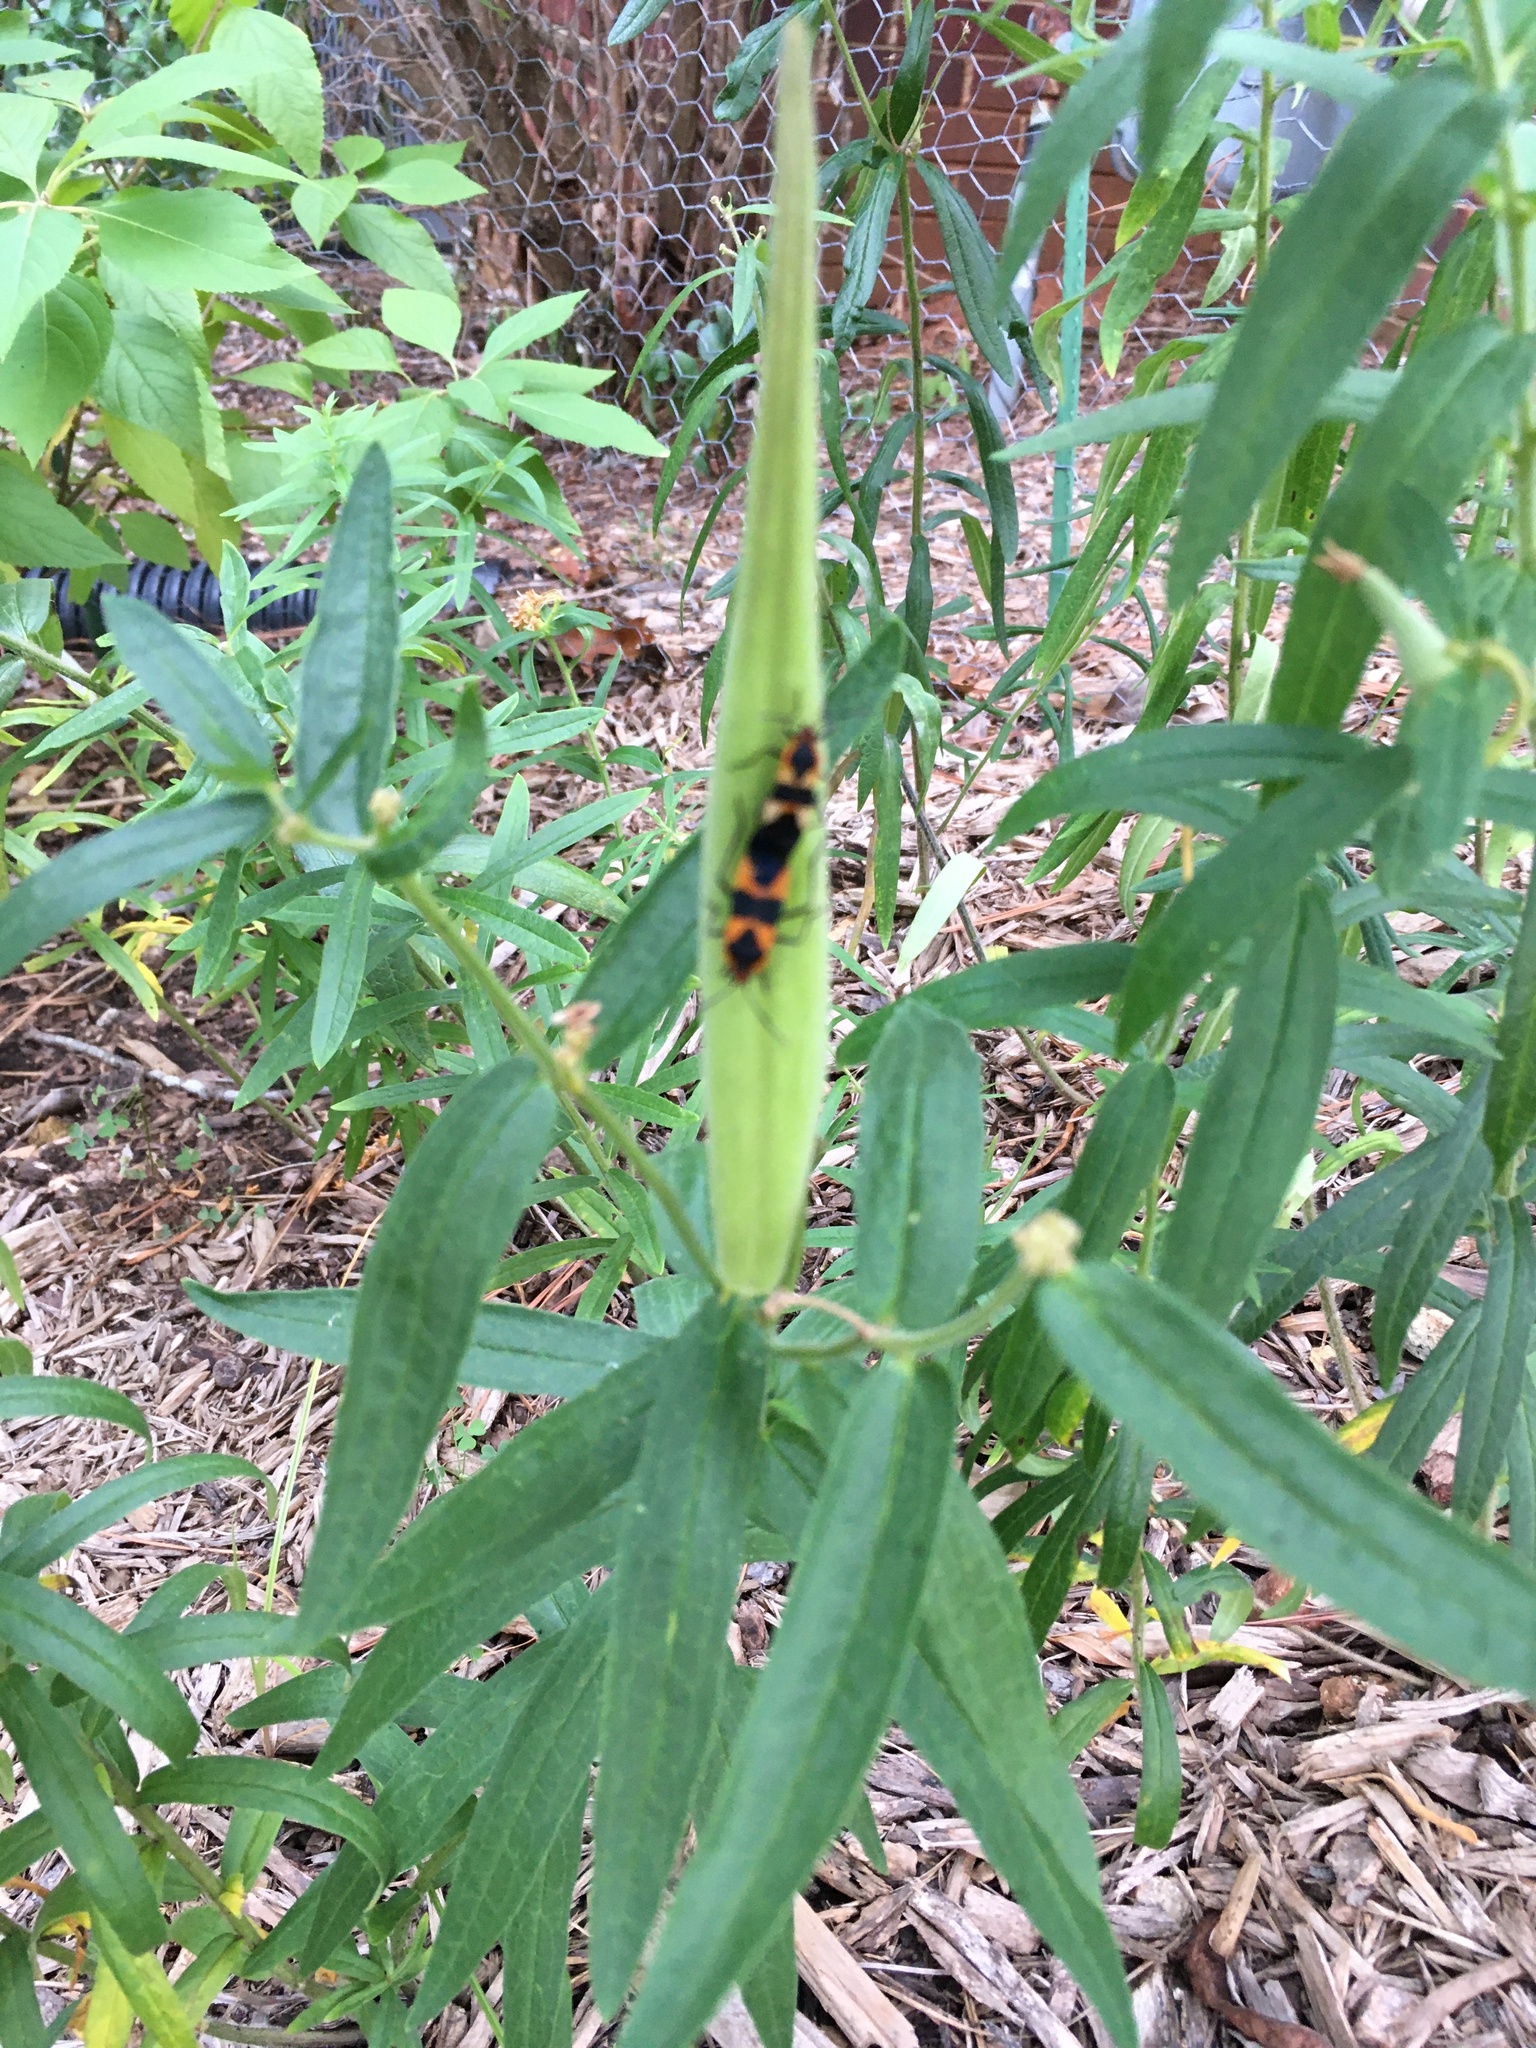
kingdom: Animalia
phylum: Arthropoda
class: Insecta
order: Hemiptera
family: Lygaeidae
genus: Oncopeltus
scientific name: Oncopeltus fasciatus
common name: Large milkweed bug
